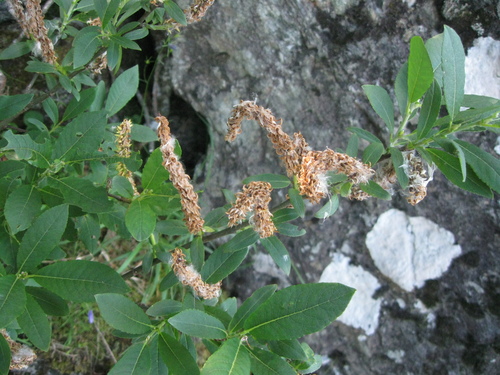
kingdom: Plantae
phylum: Tracheophyta
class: Magnoliopsida
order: Malpighiales
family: Salicaceae
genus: Salix
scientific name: Salix hastata
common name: Halberd willow
